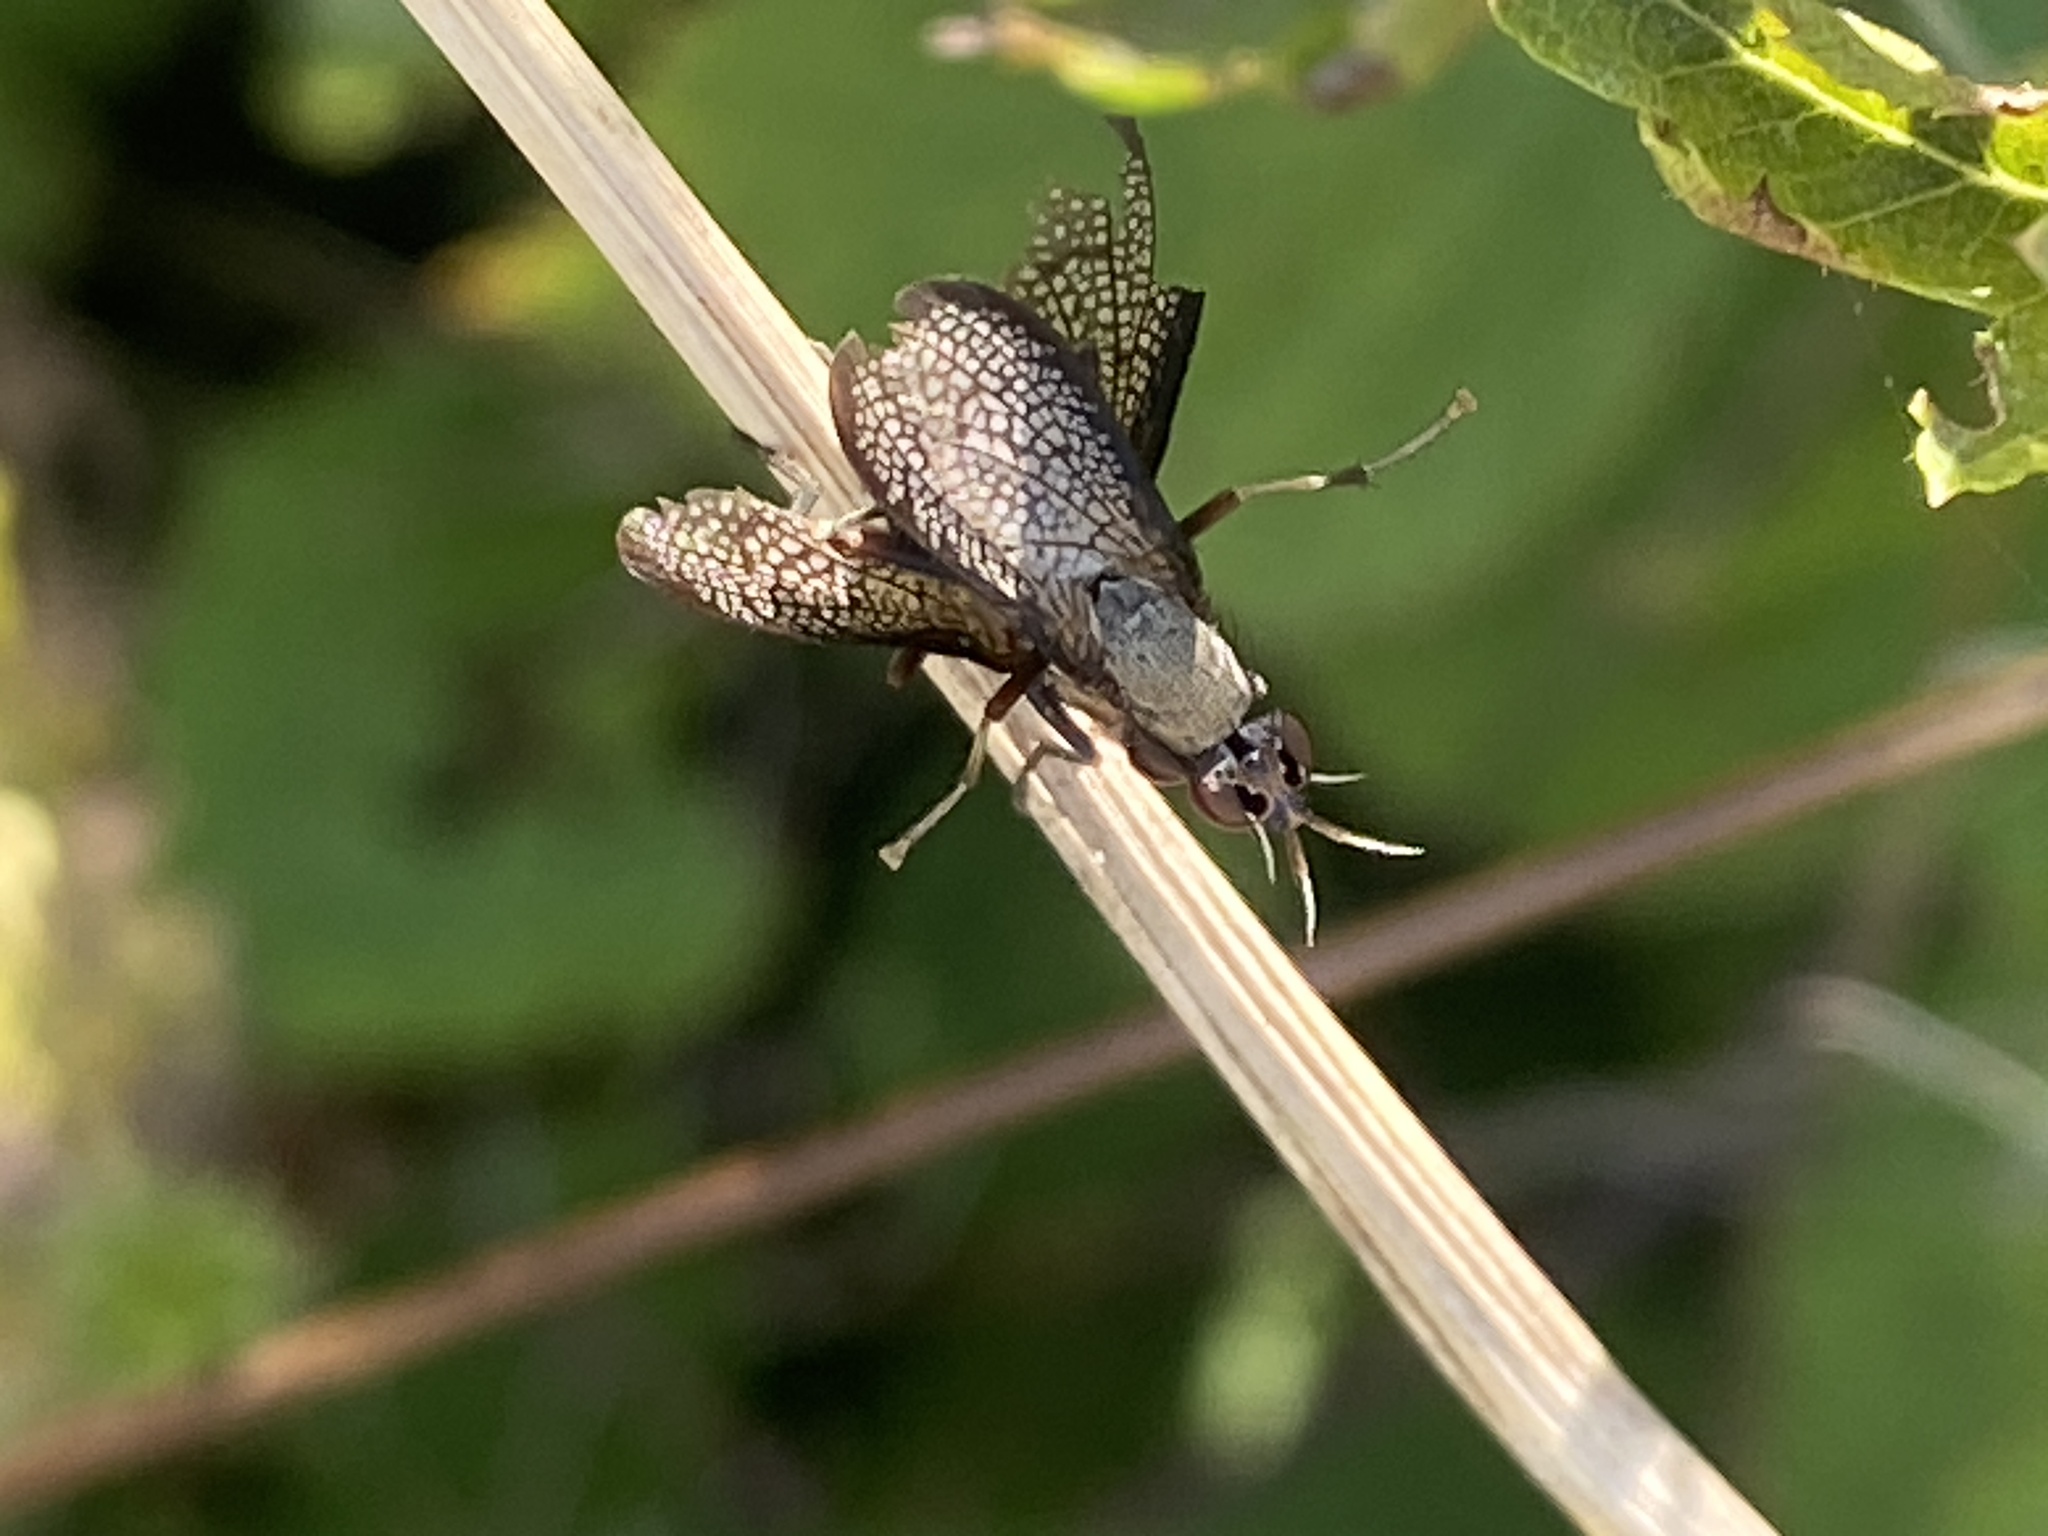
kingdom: Animalia
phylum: Arthropoda
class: Insecta
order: Diptera
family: Sciomyzidae
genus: Coremacera
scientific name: Coremacera marginata
